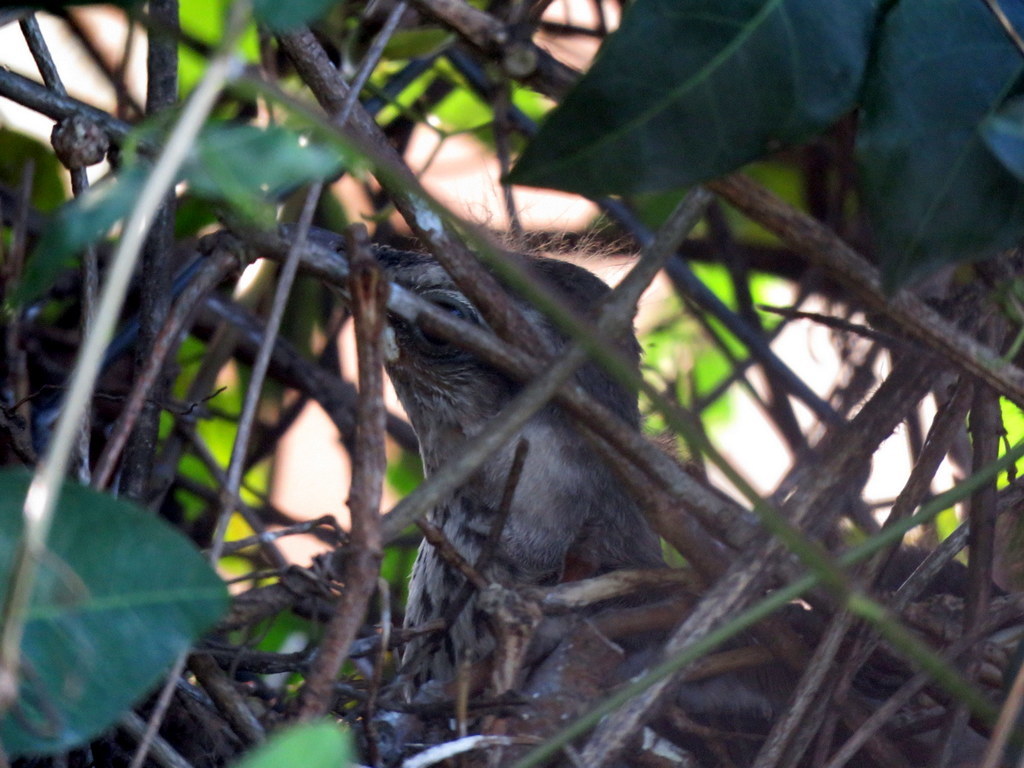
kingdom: Animalia
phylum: Chordata
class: Aves
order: Passeriformes
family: Mimidae
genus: Mimus
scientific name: Mimus saturninus
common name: Chalk-browed mockingbird
